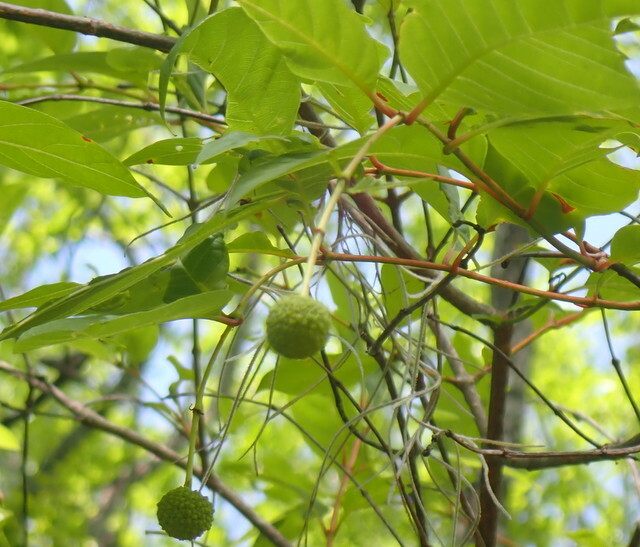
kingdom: Plantae
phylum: Tracheophyta
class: Magnoliopsida
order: Gentianales
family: Rubiaceae
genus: Cephalanthus
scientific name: Cephalanthus occidentalis
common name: Button-willow
